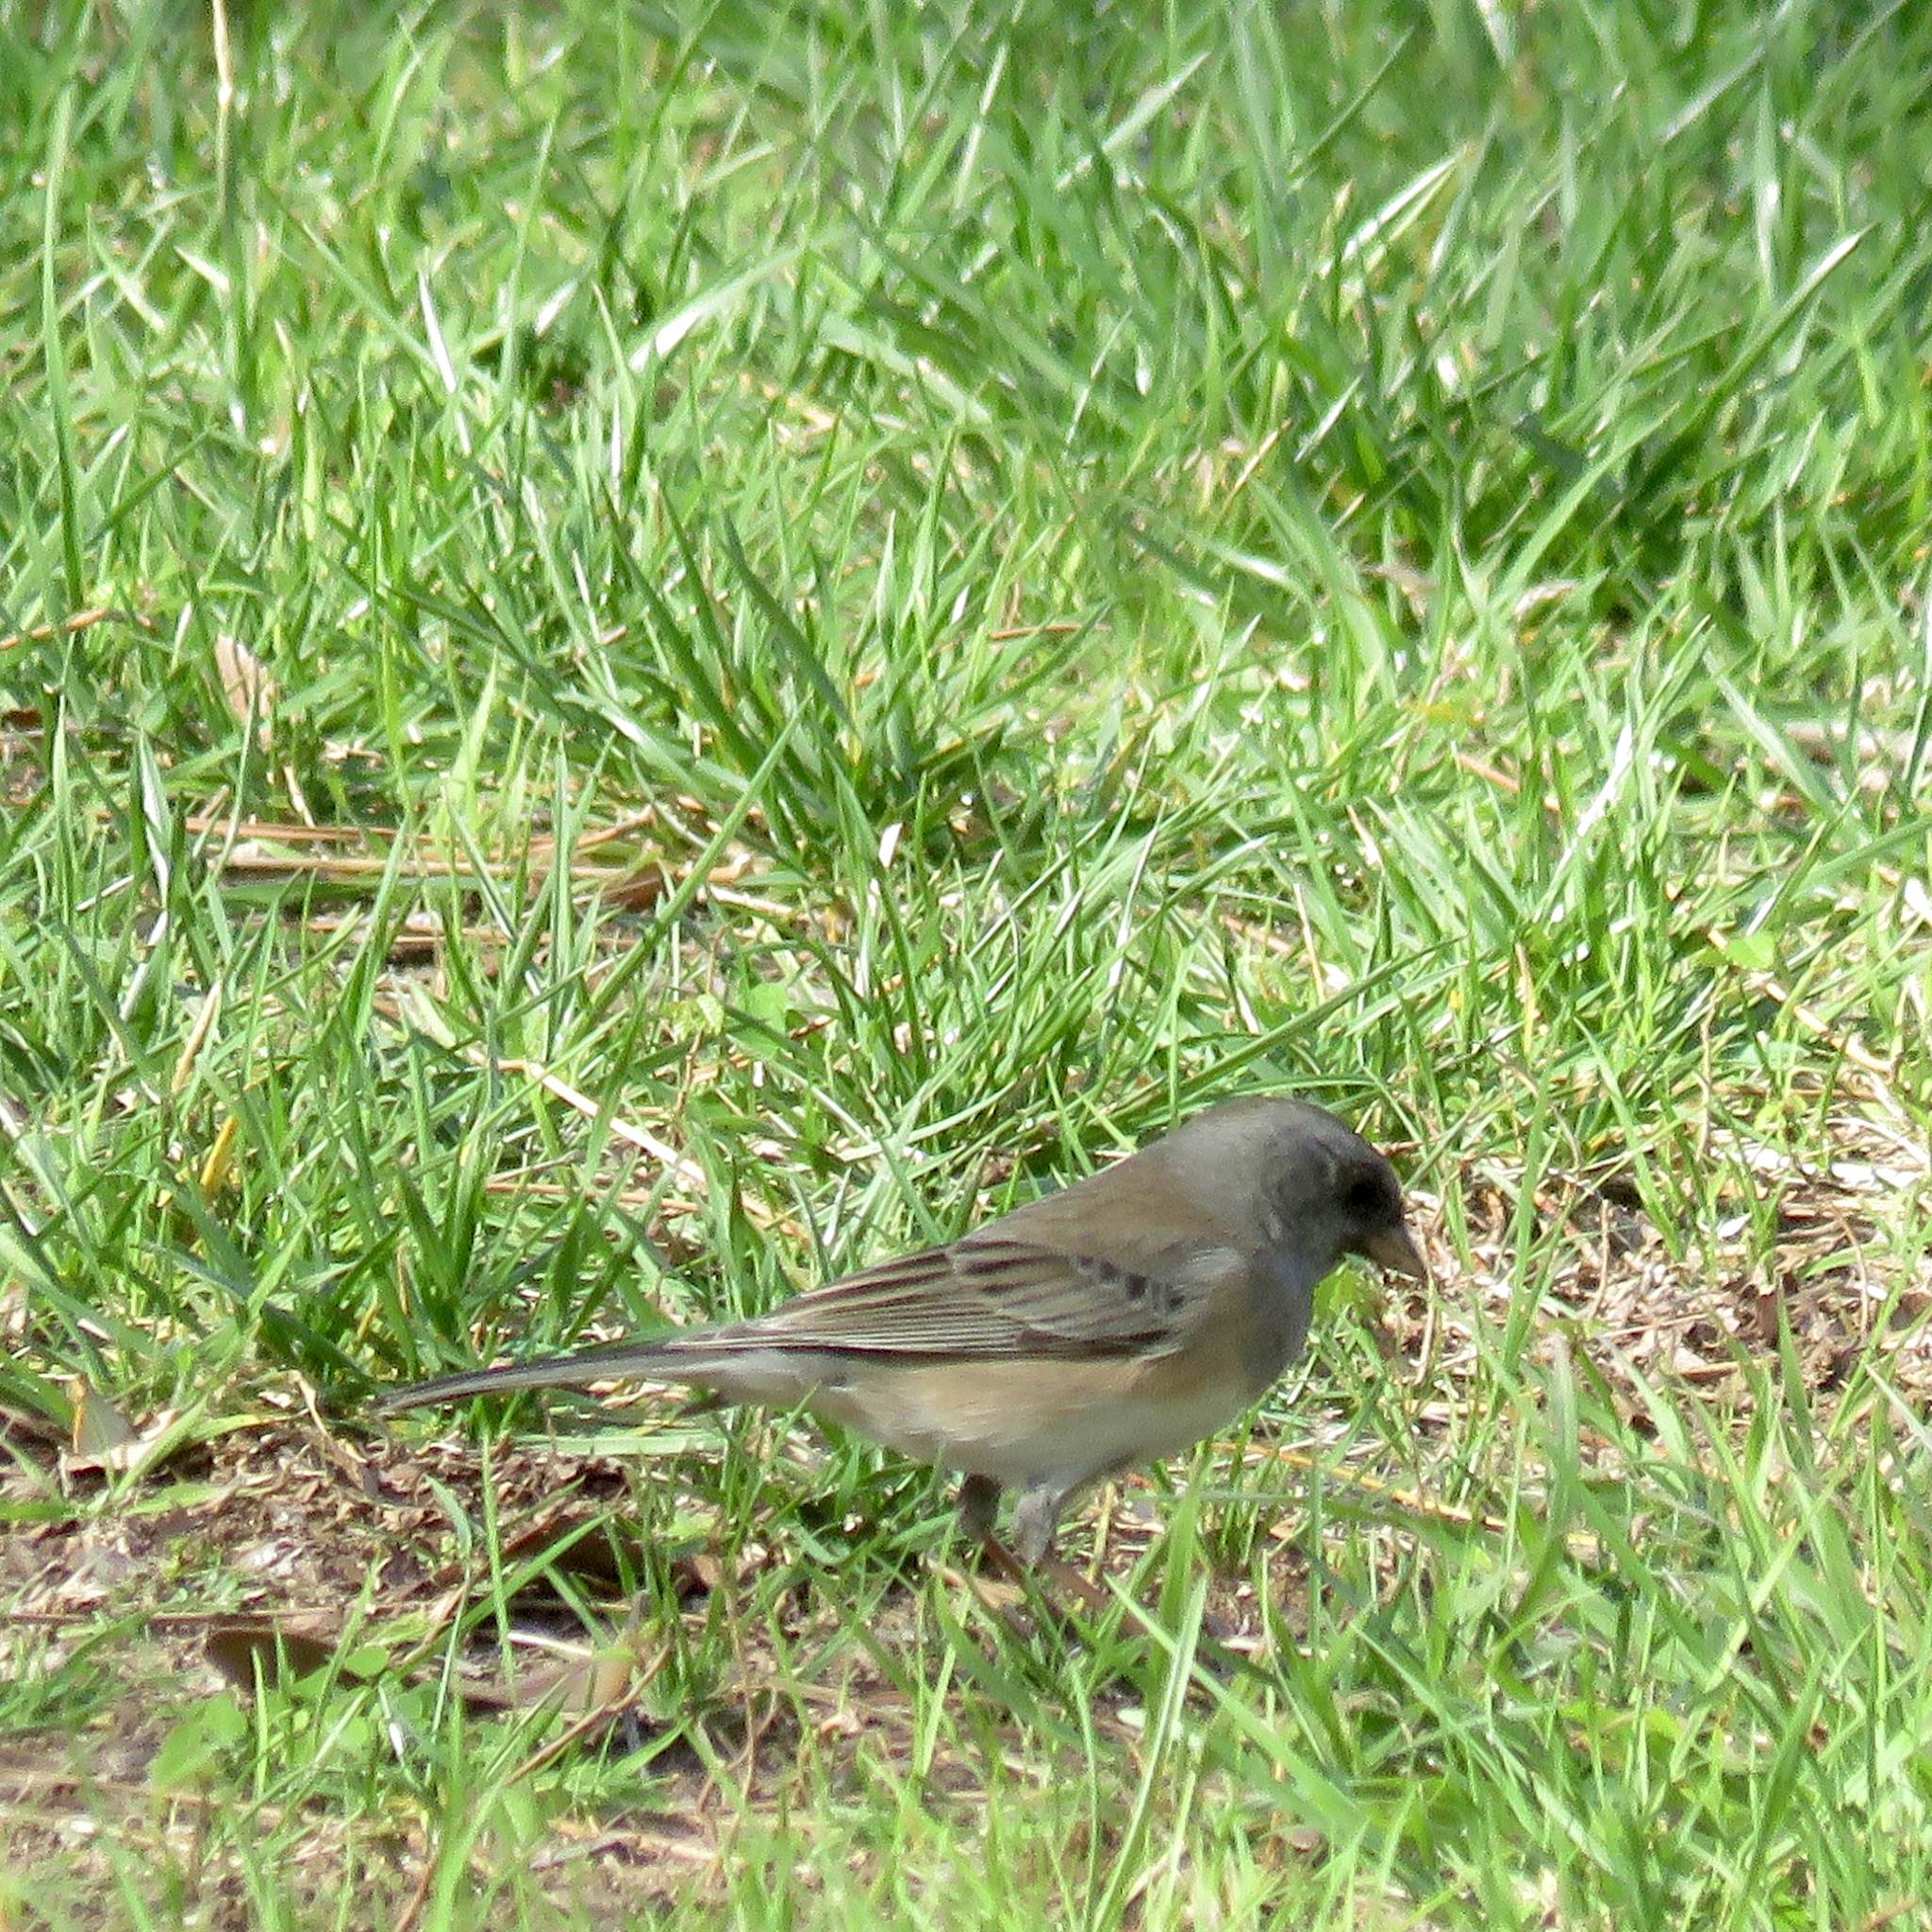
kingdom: Animalia
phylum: Chordata
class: Aves
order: Passeriformes
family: Passerellidae
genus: Junco
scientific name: Junco hyemalis
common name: Dark-eyed junco
